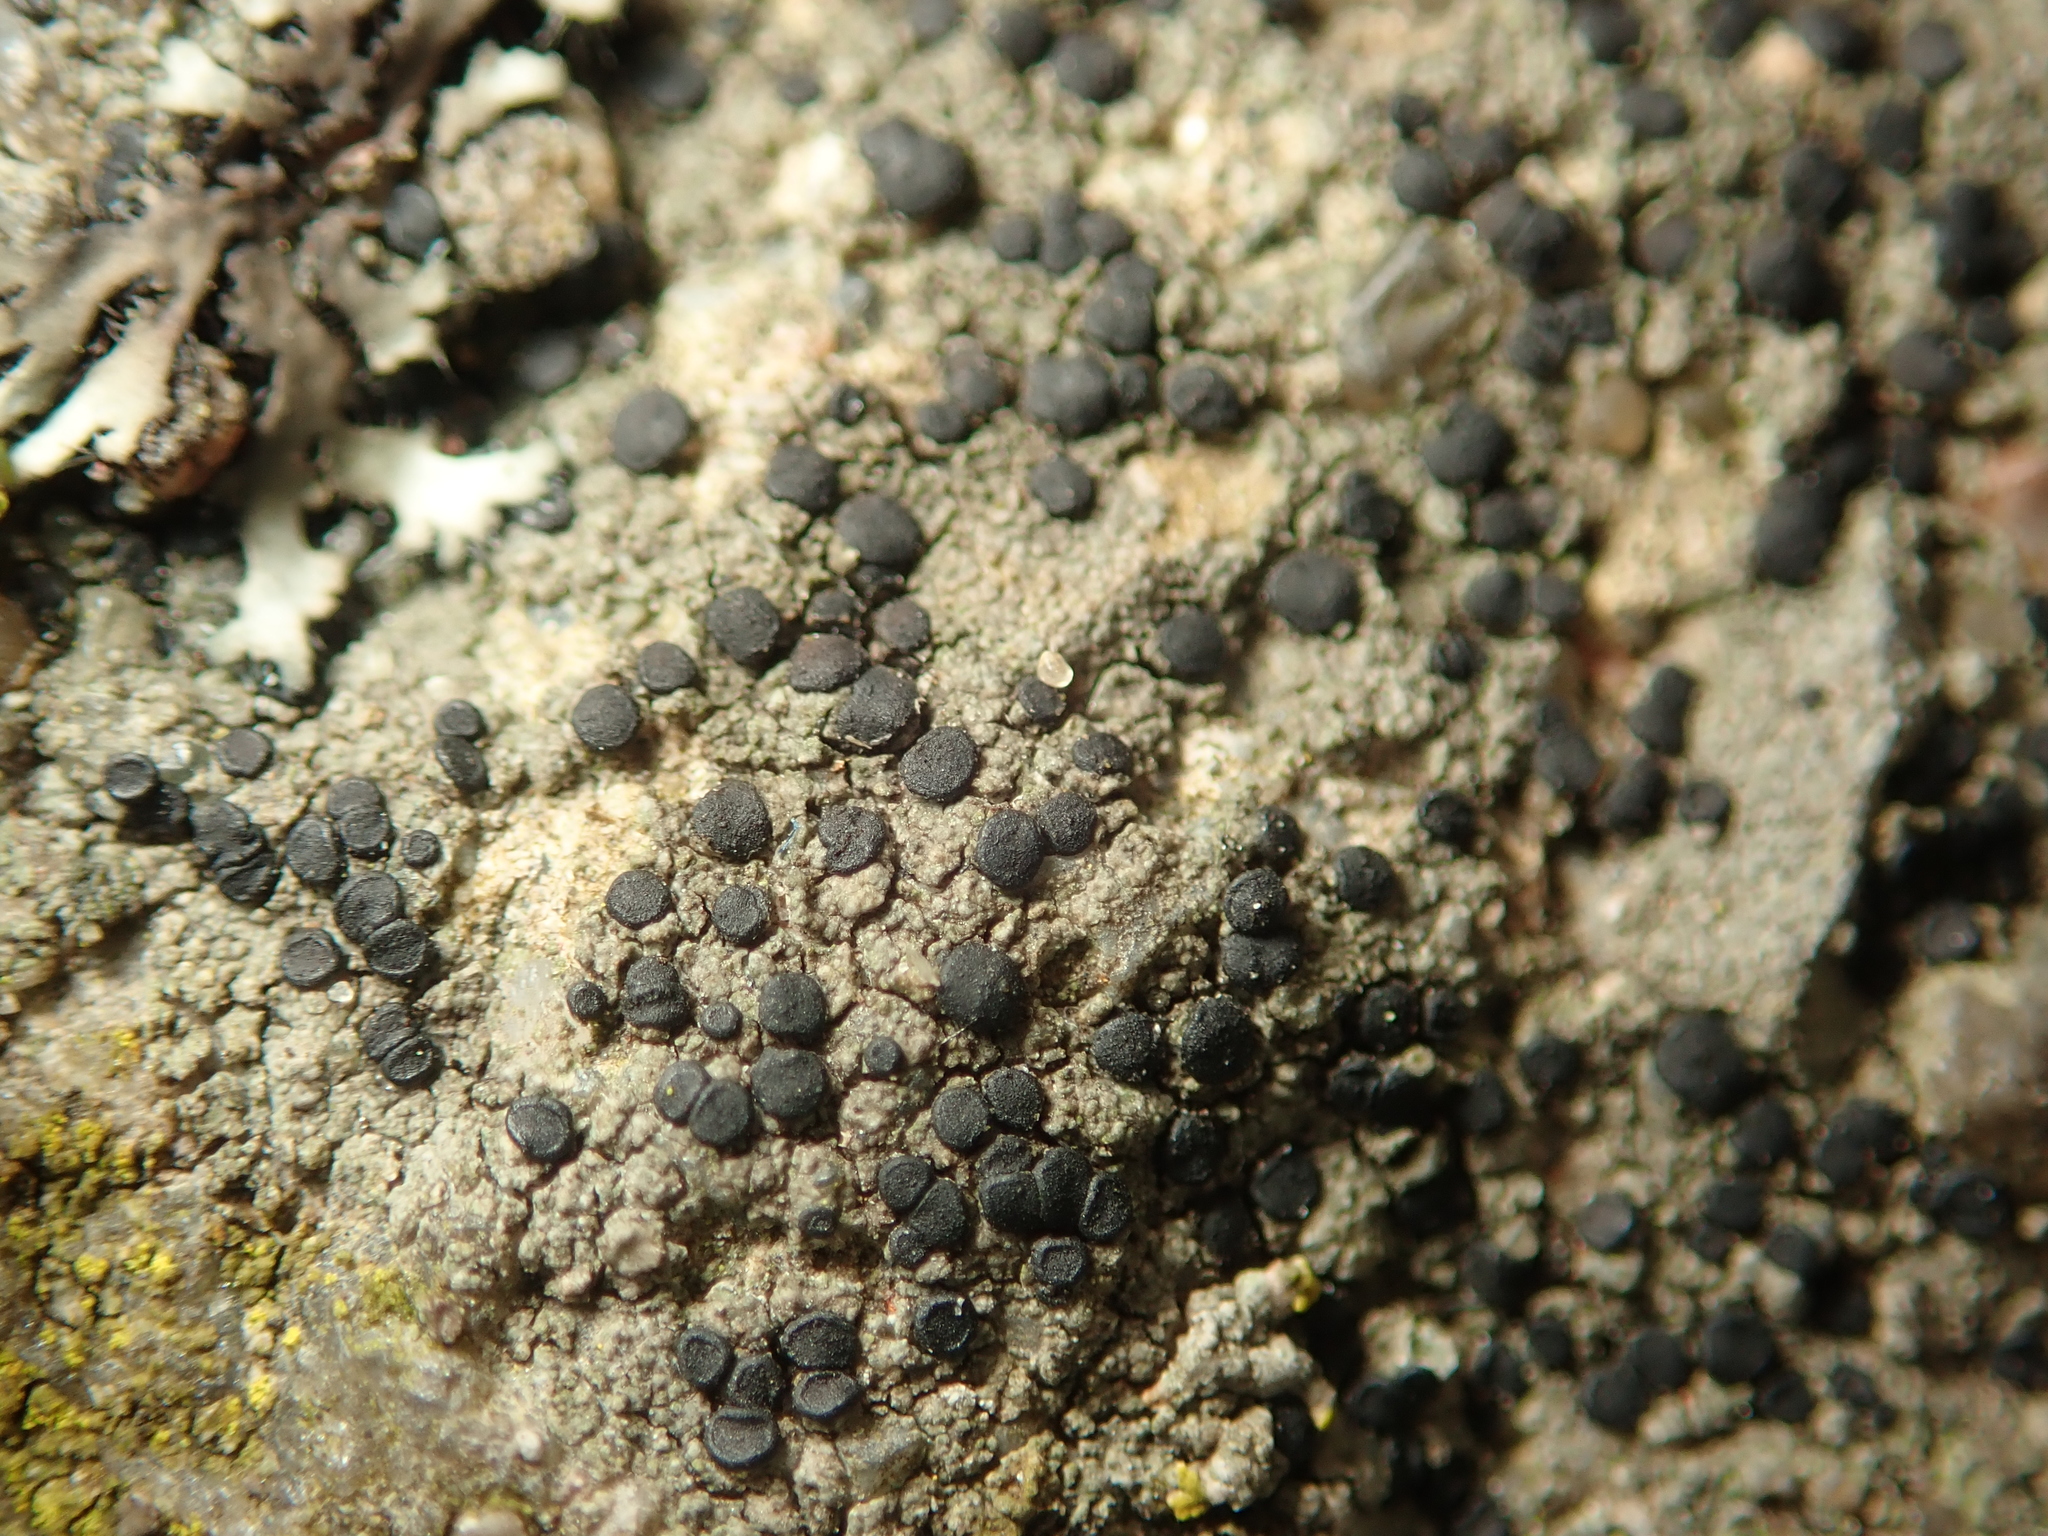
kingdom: Fungi
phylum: Ascomycota
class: Lecanoromycetes
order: Lecanorales
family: Lecanoraceae
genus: Lecidella
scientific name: Lecidella stigmatea
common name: Limestone disc lichen
